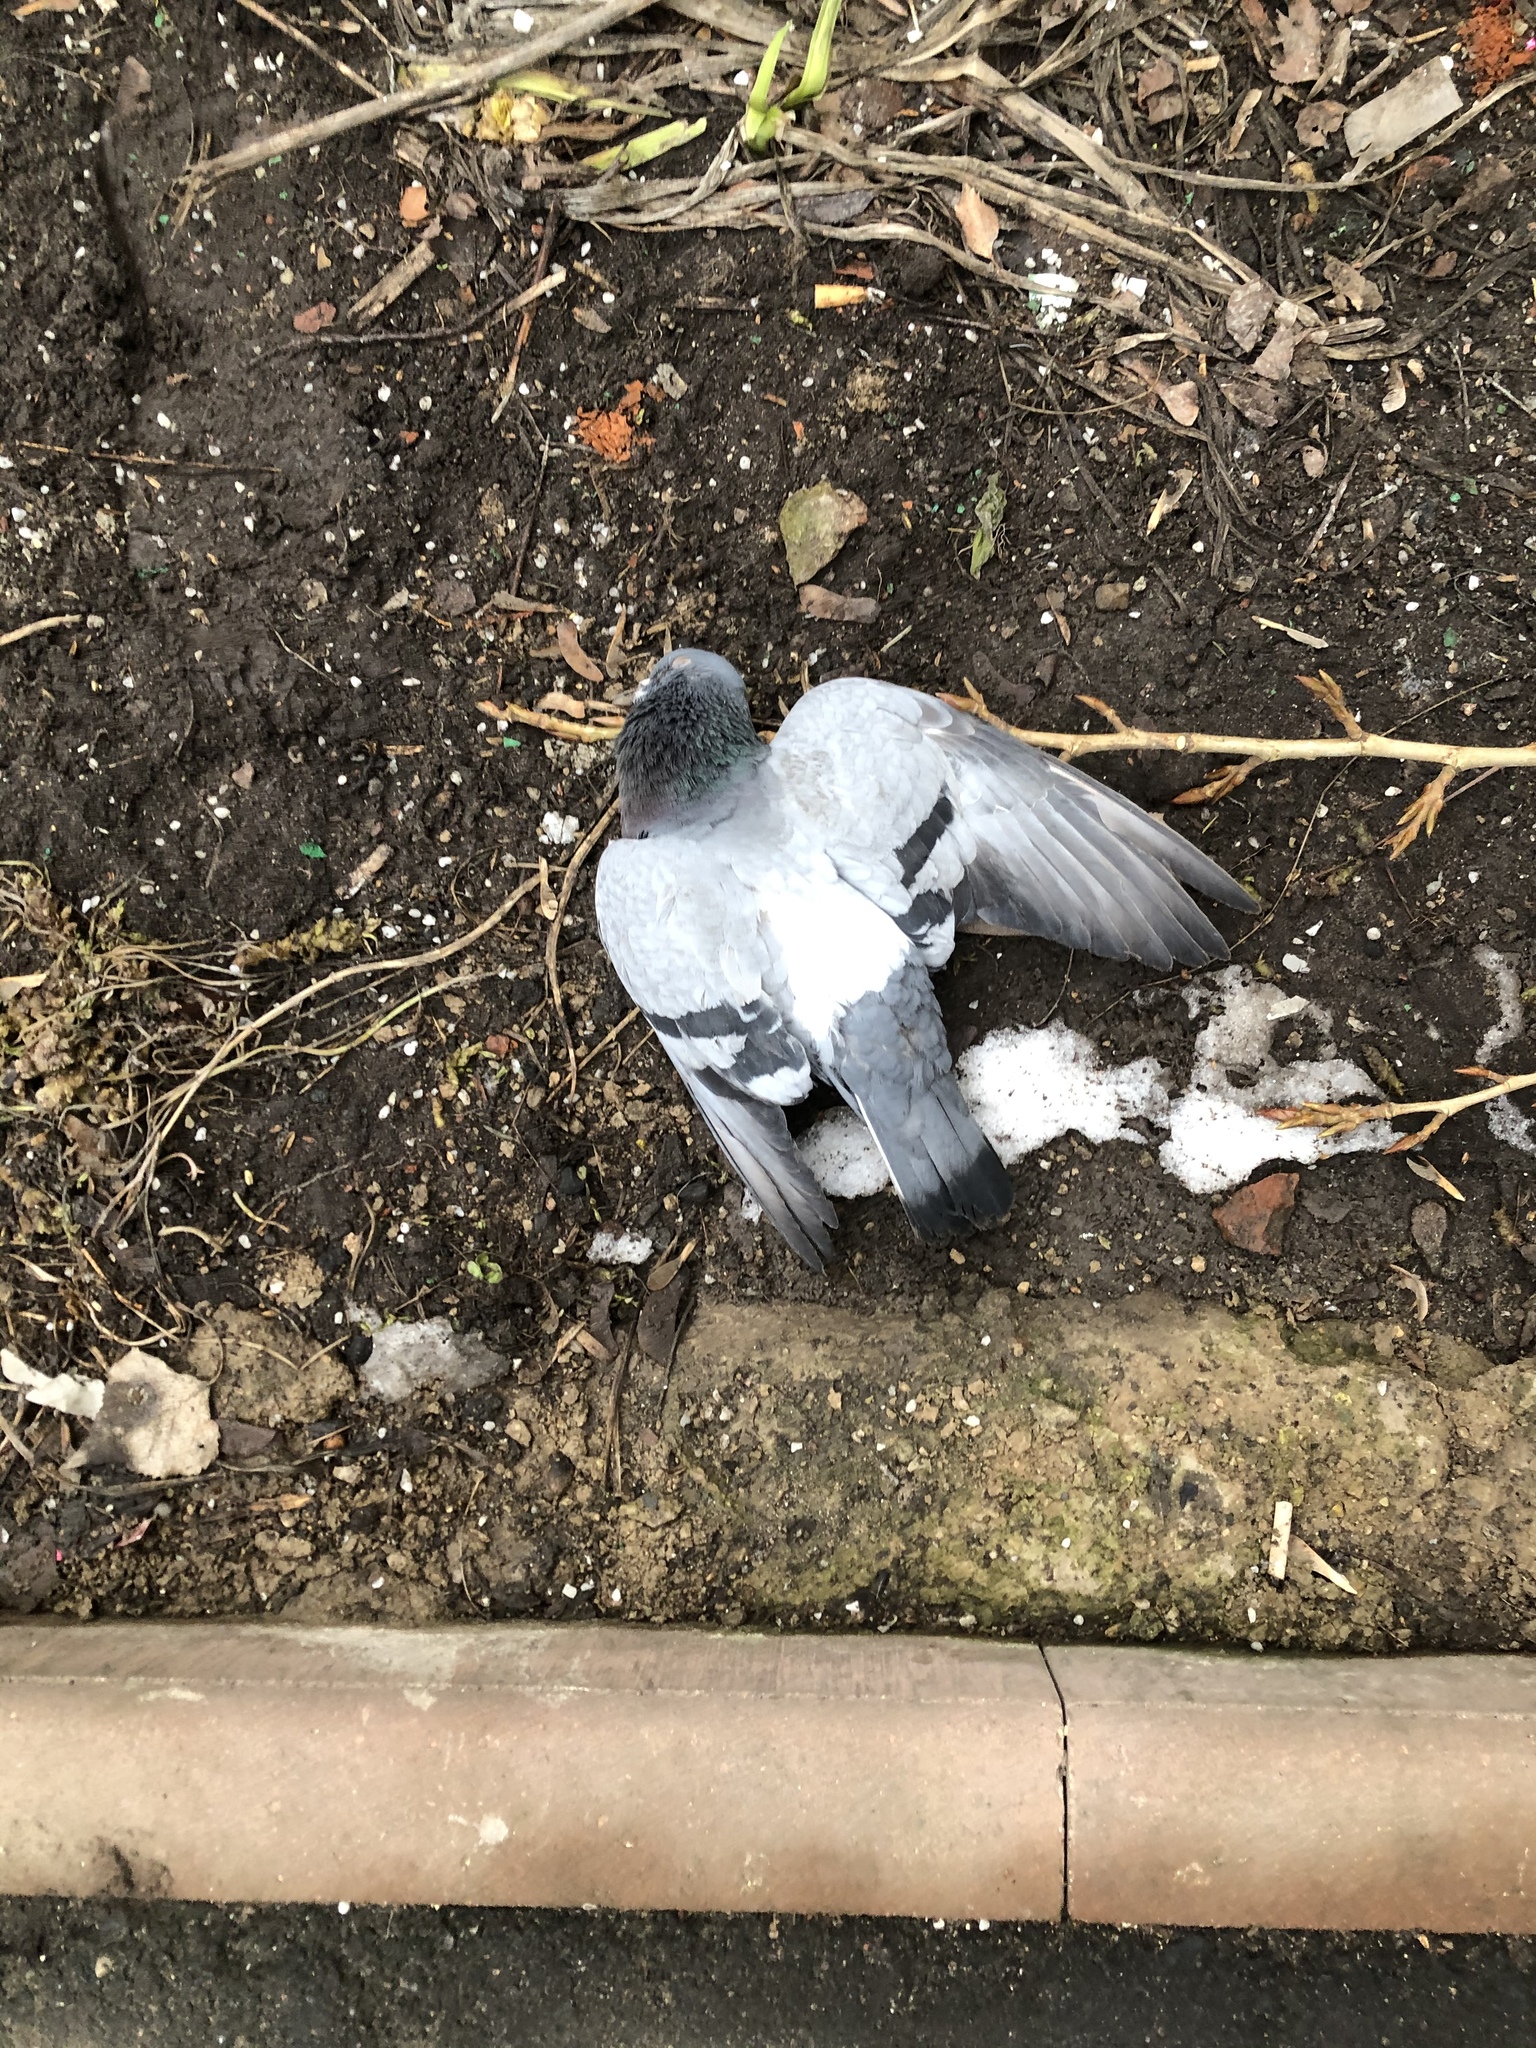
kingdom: Animalia
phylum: Chordata
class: Aves
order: Columbiformes
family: Columbidae
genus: Columba
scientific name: Columba livia
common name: Rock pigeon
